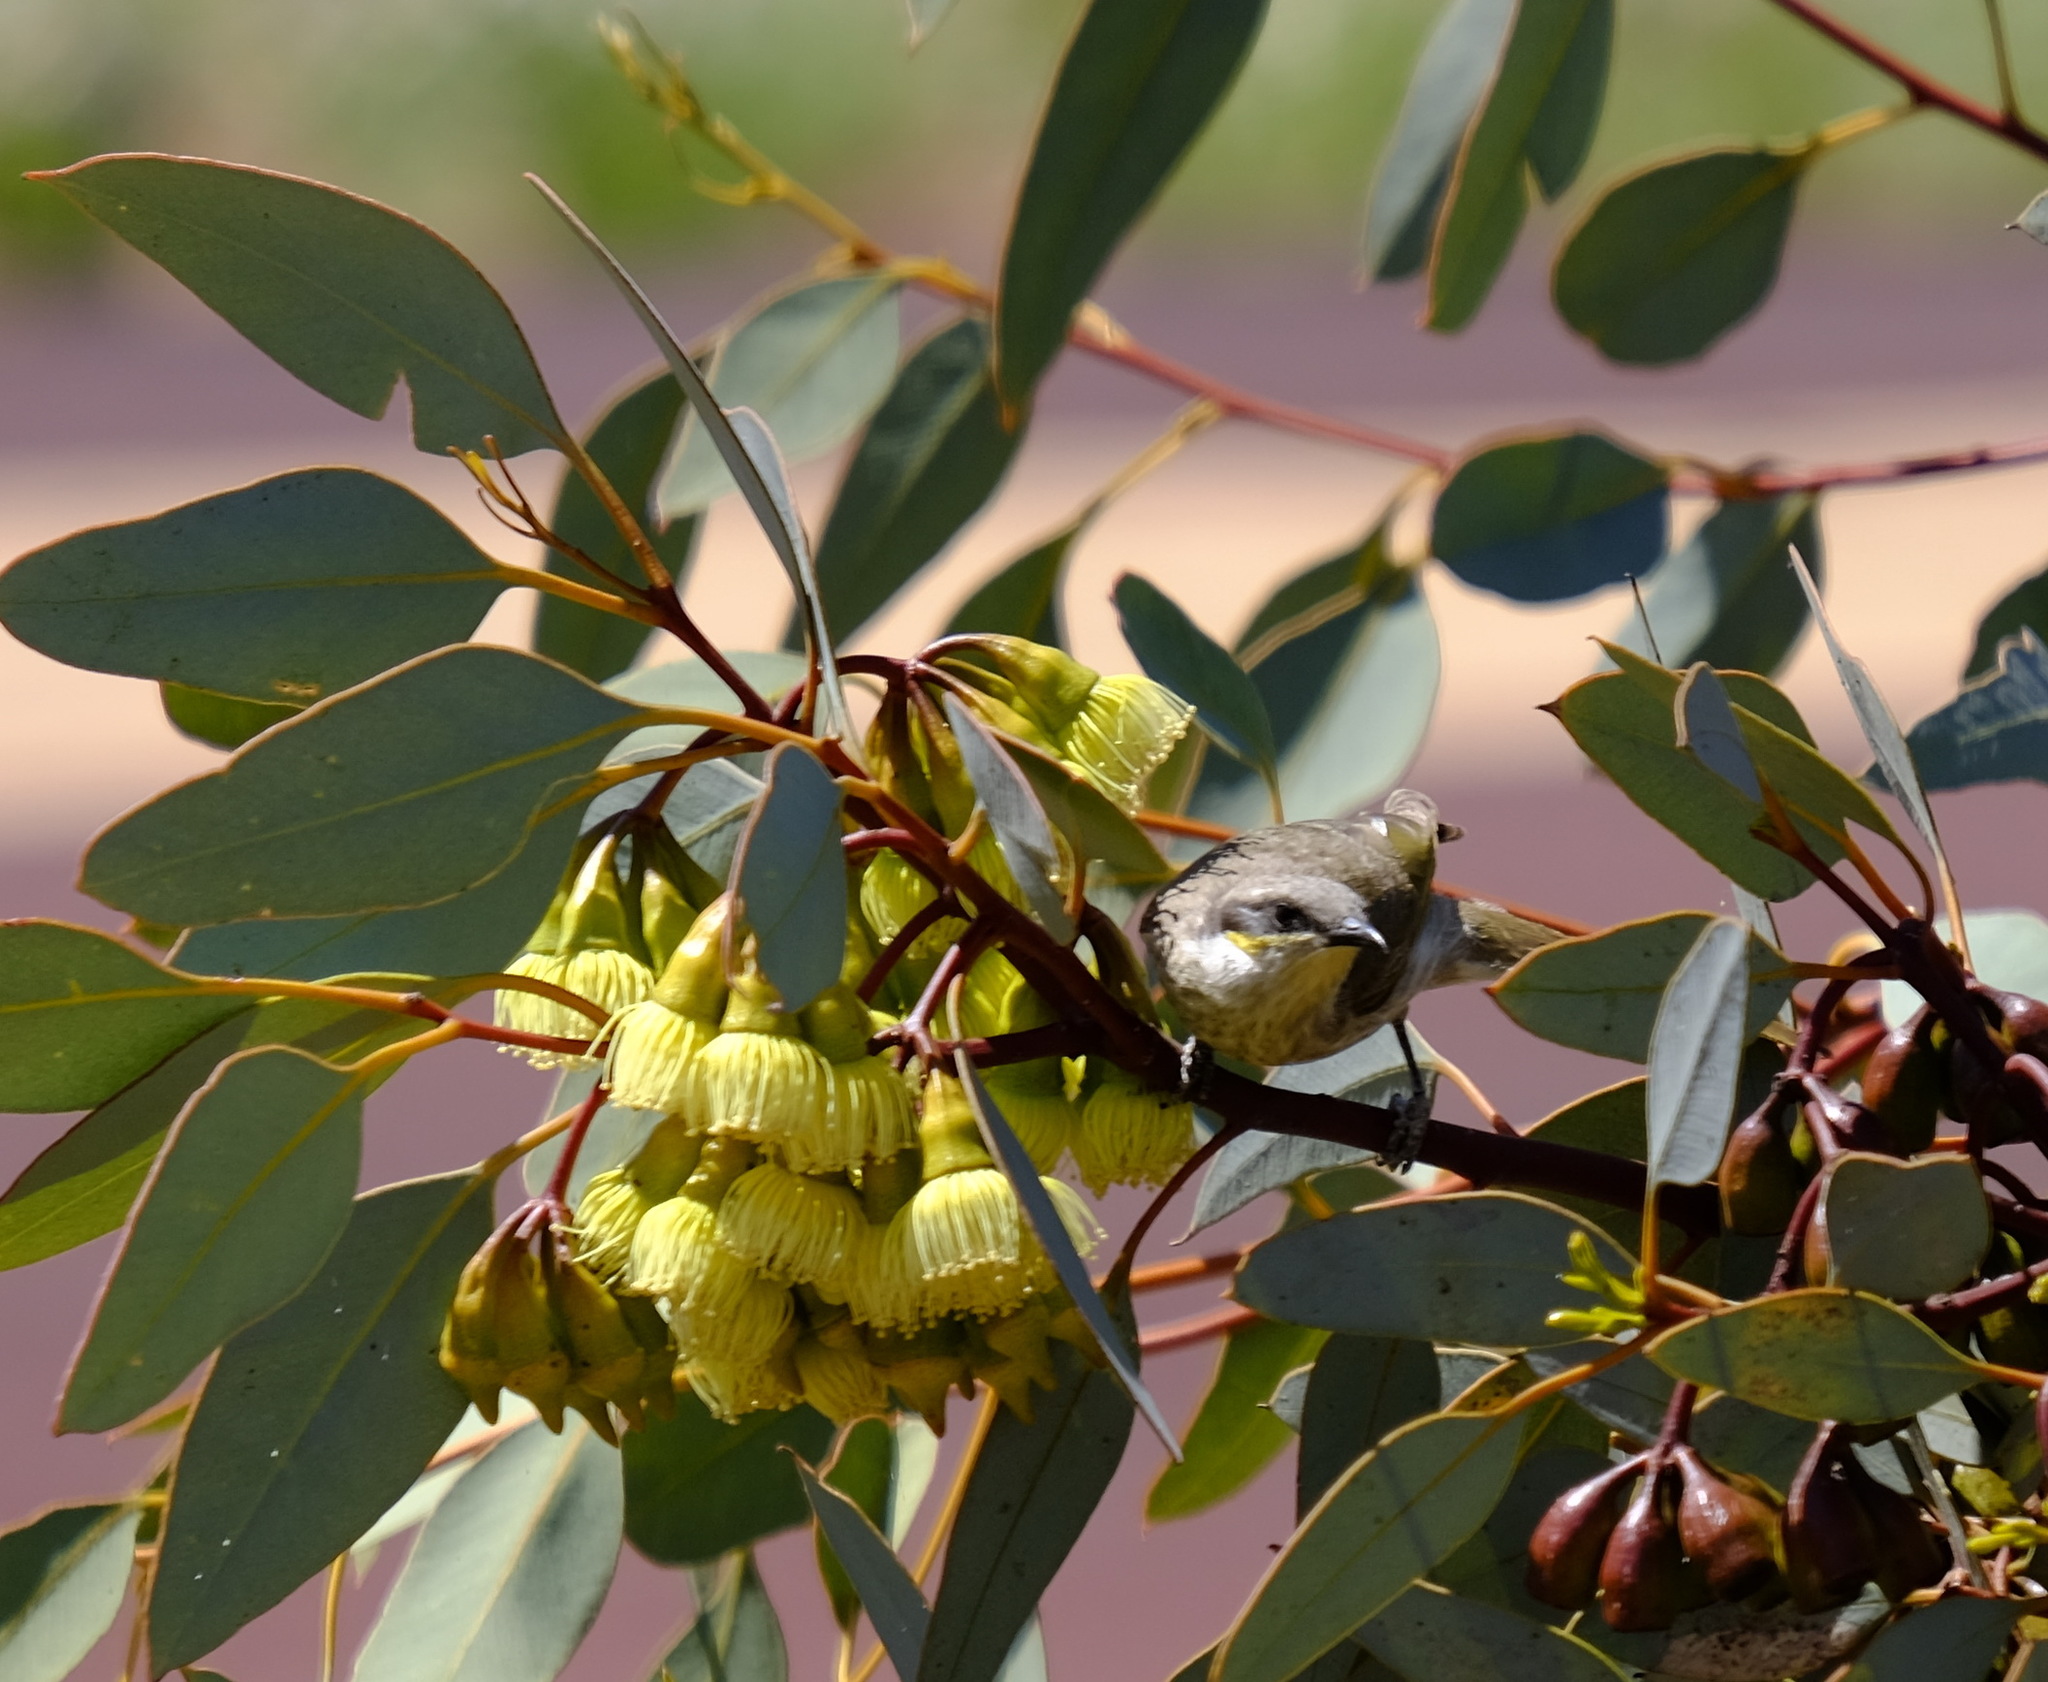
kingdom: Animalia
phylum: Chordata
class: Aves
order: Passeriformes
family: Meliphagidae
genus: Gavicalis
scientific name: Gavicalis virescens
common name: Singing honeyeater
